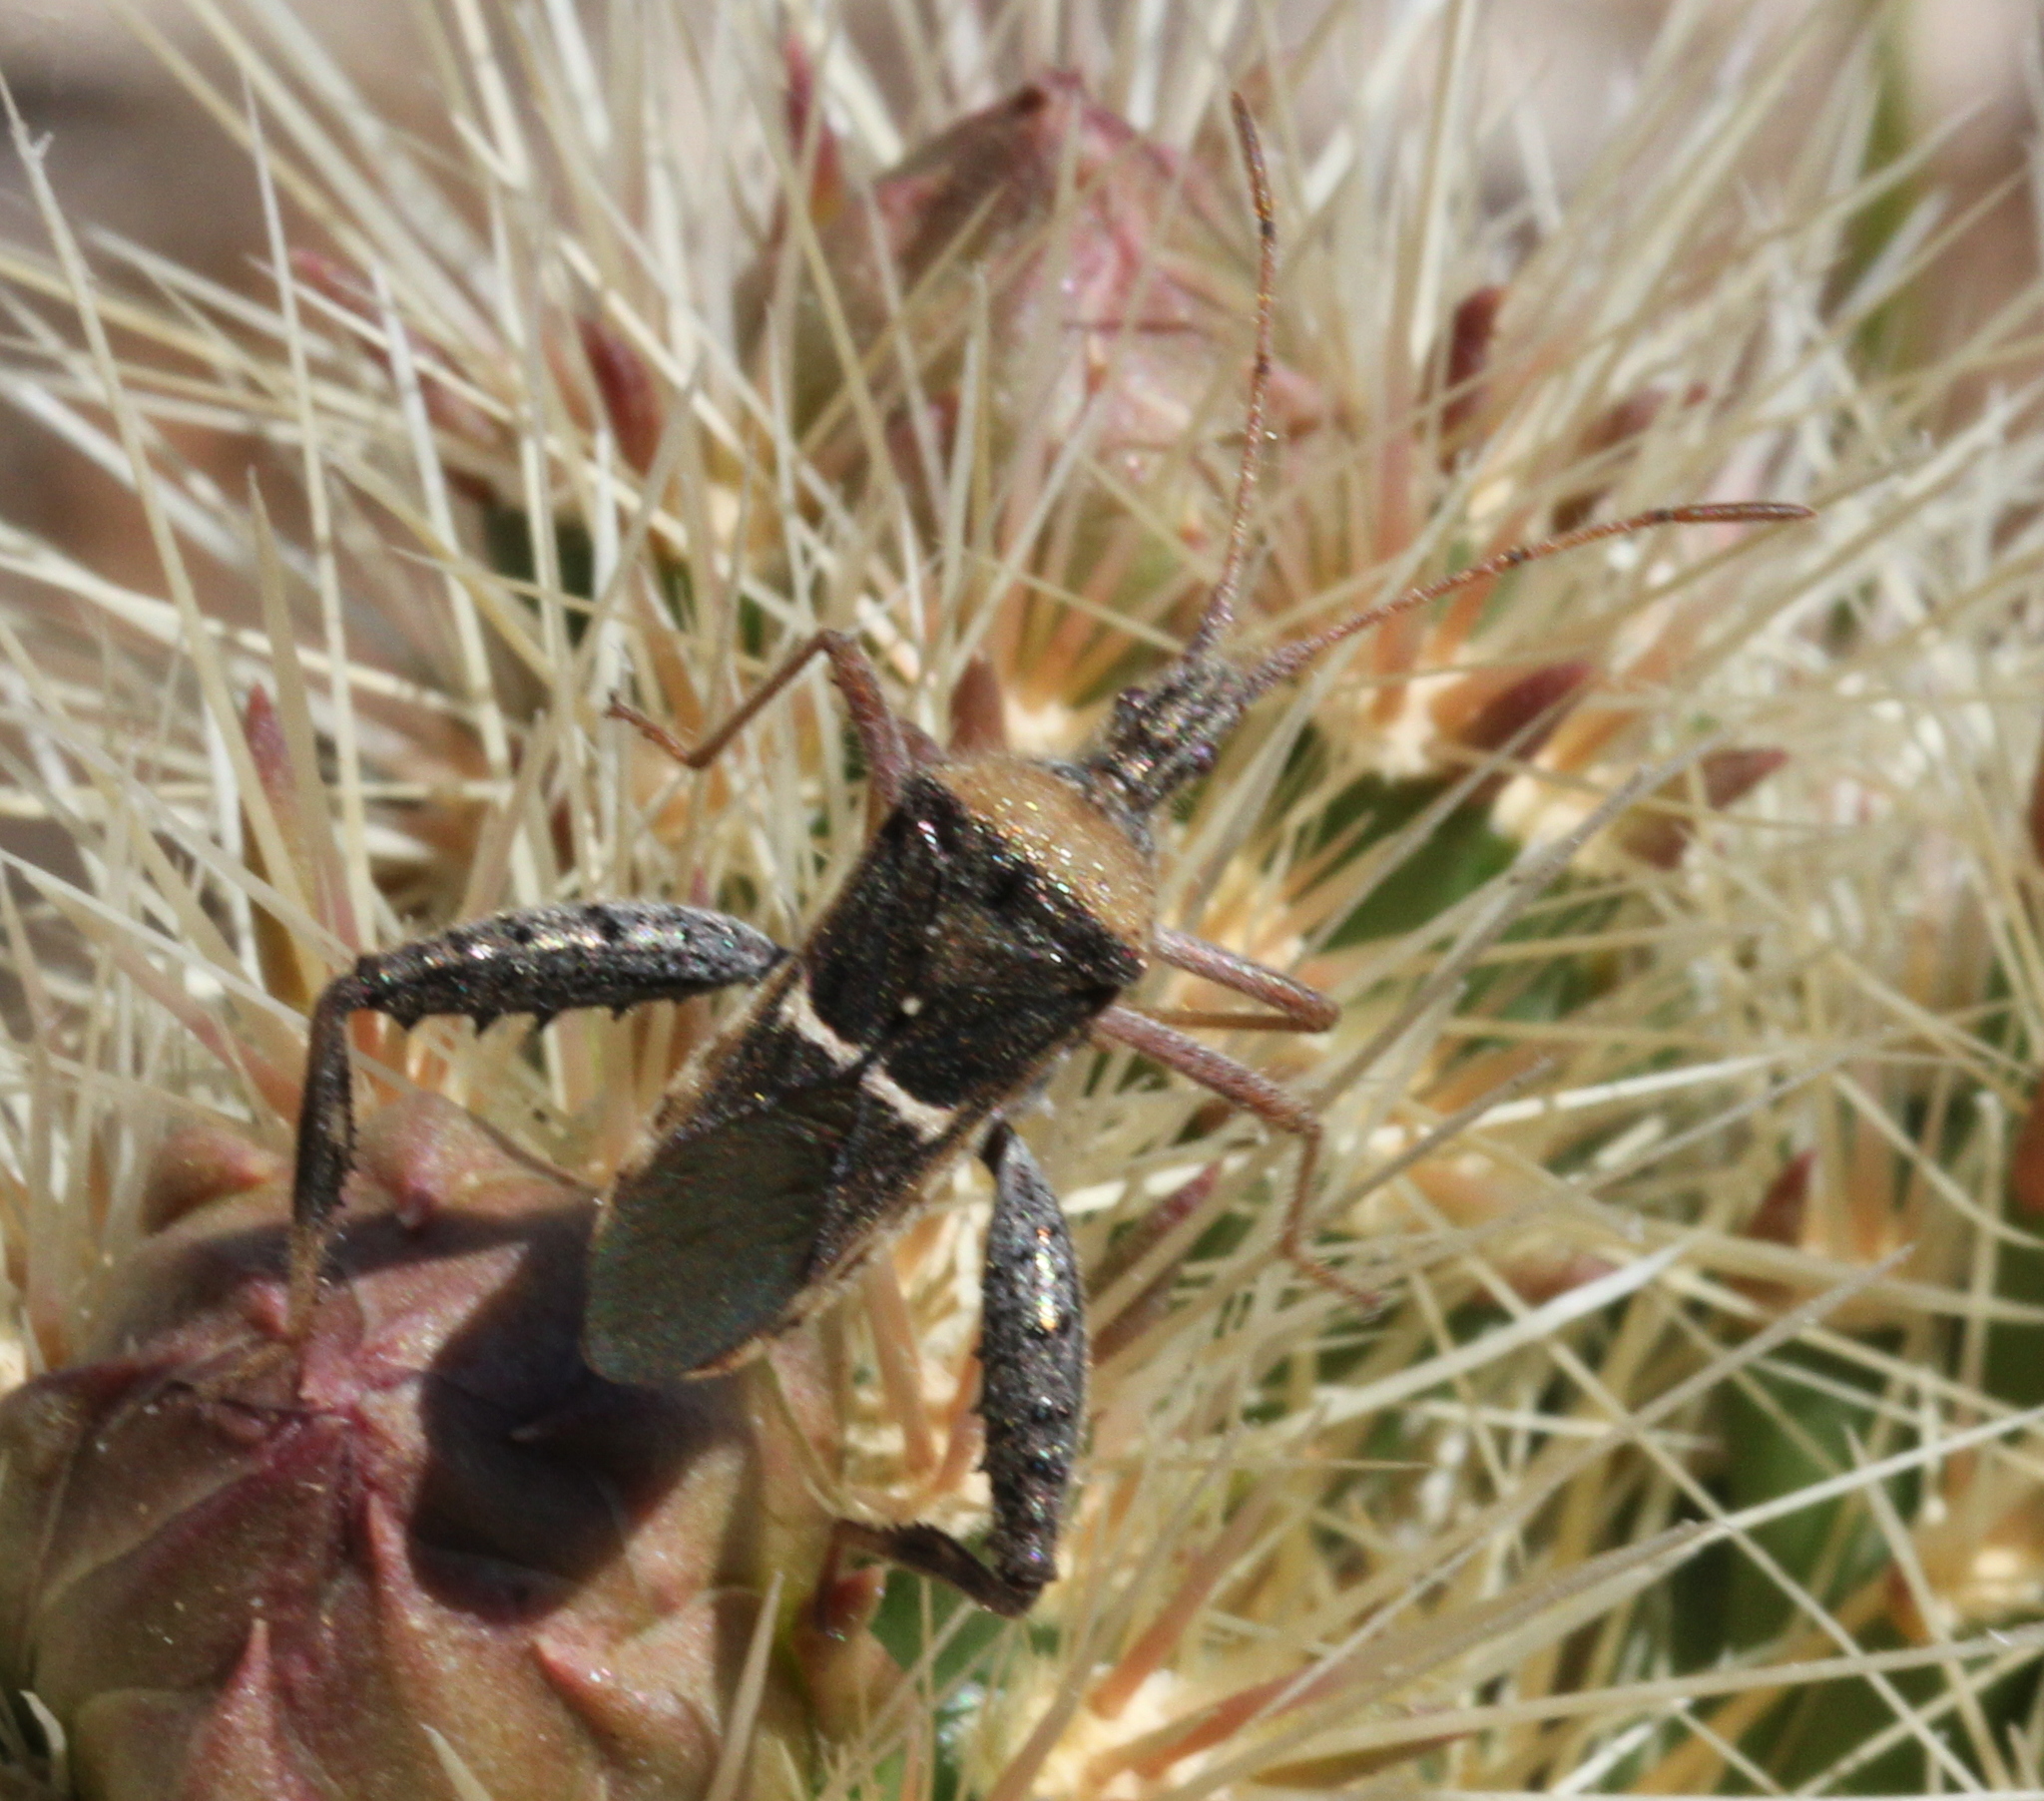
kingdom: Animalia
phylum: Arthropoda
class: Insecta
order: Hemiptera
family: Coreidae
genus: Narnia
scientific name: Narnia snowi
